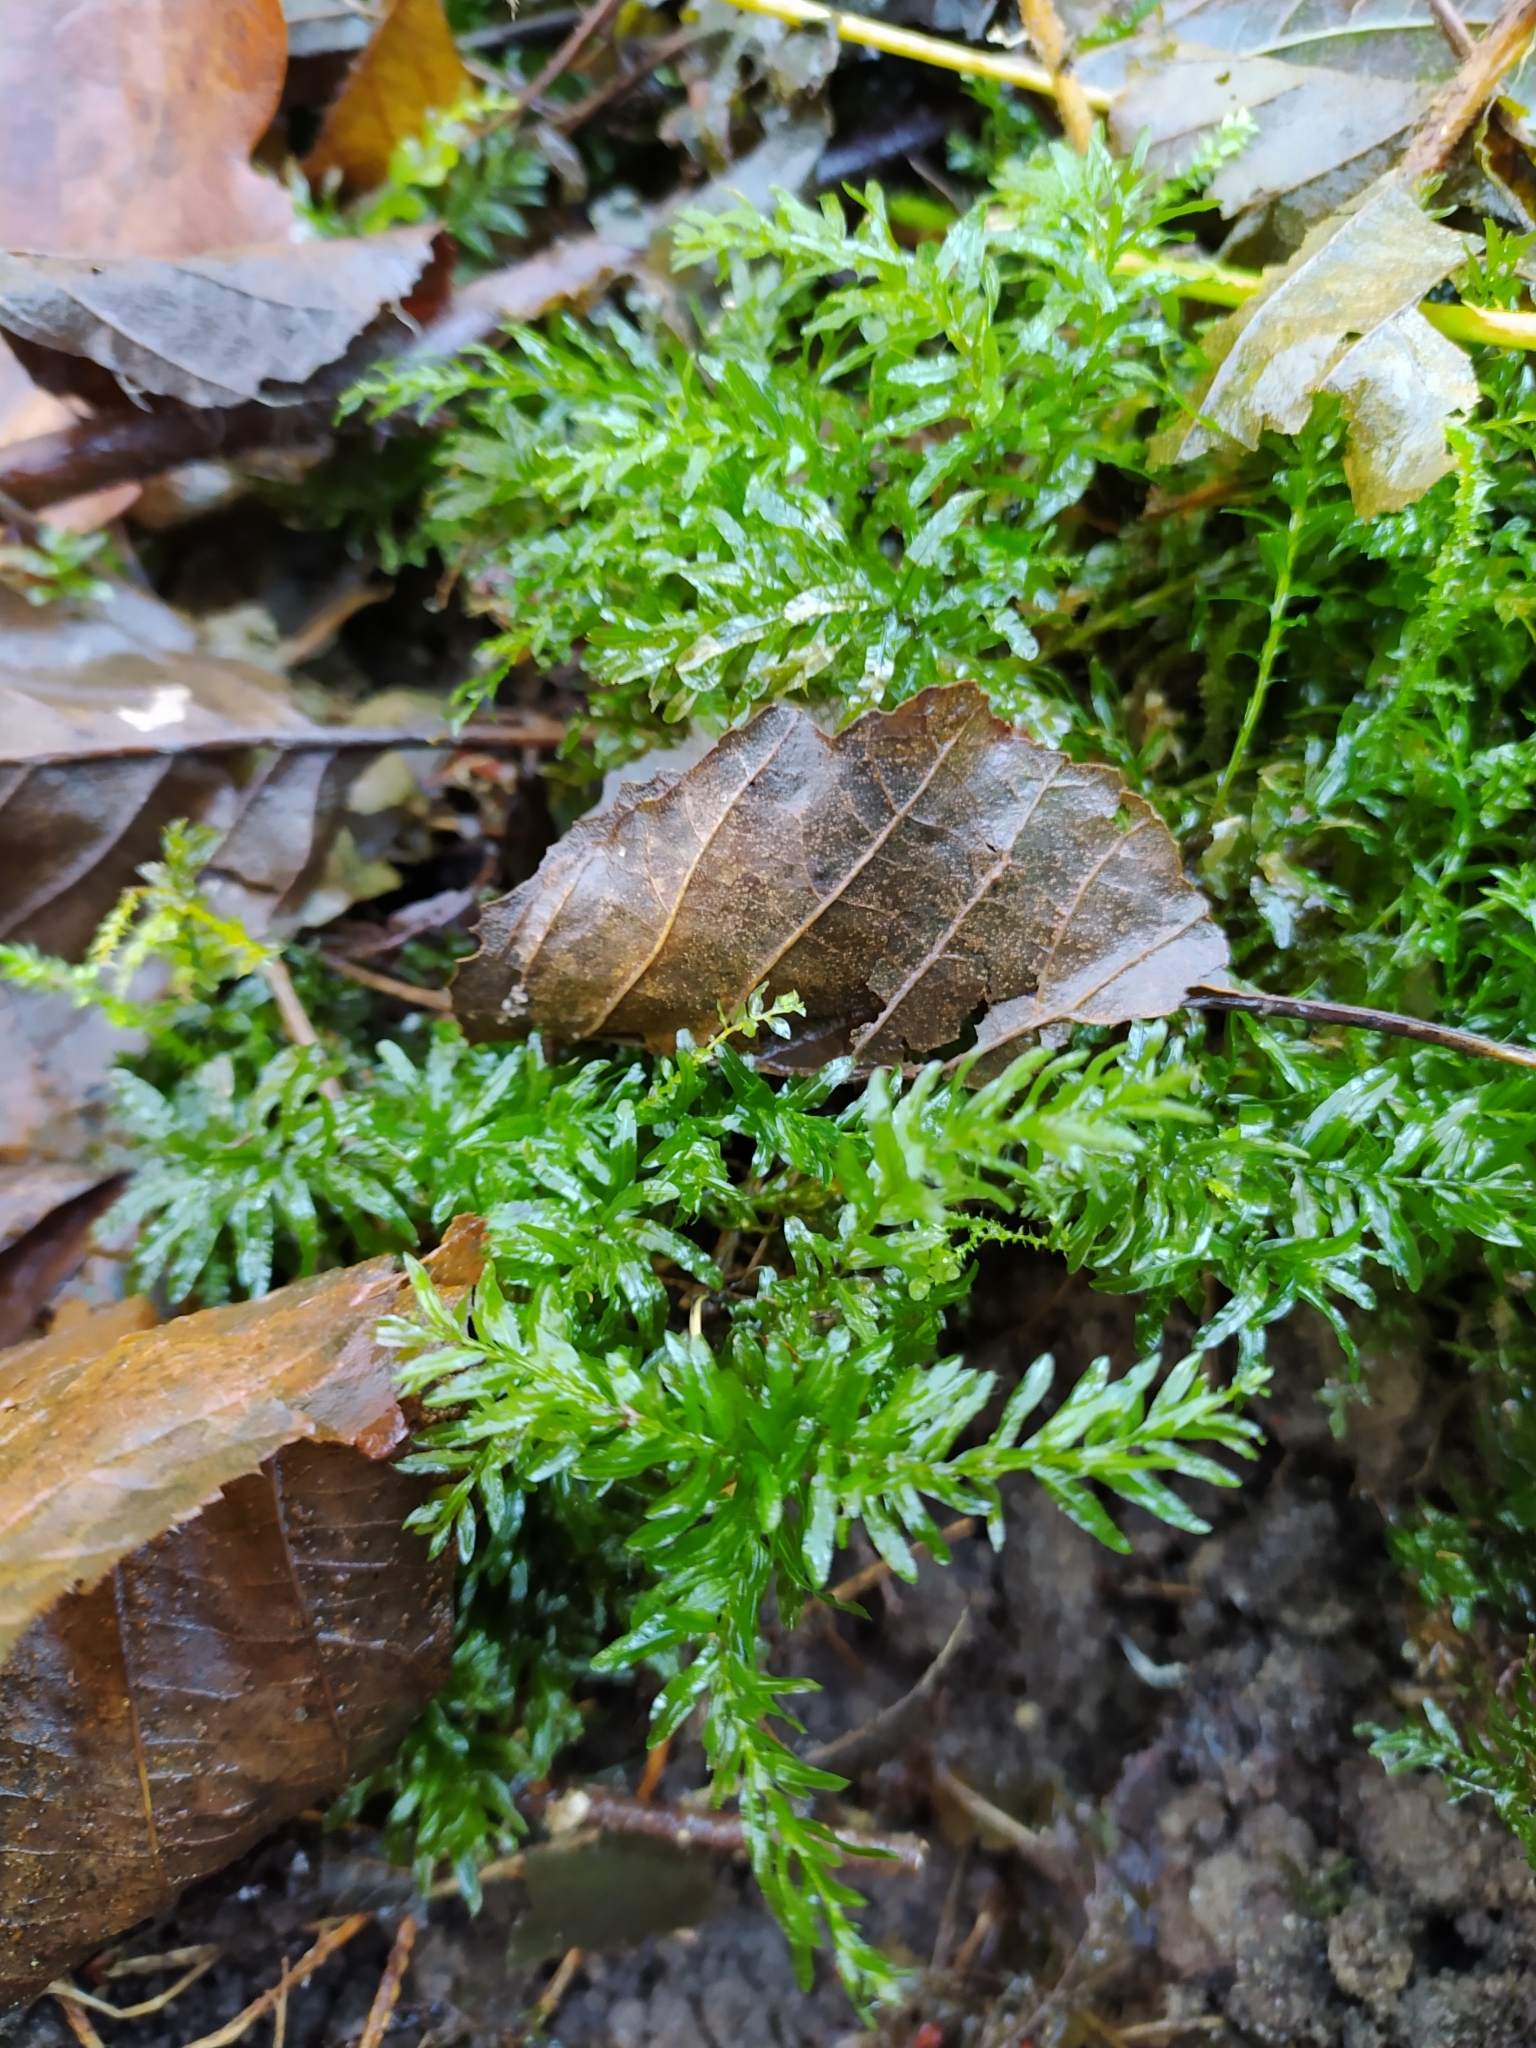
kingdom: Plantae
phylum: Bryophyta
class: Bryopsida
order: Bryales
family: Mniaceae
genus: Plagiomnium
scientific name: Plagiomnium undulatum
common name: Hart's-tongue thyme-moss
